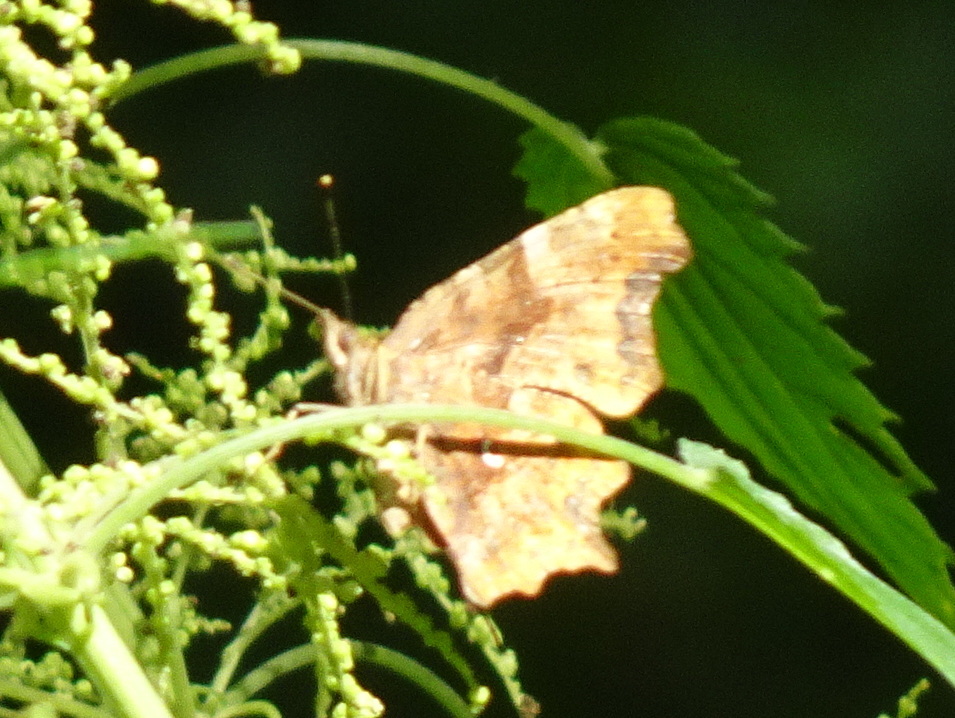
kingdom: Animalia
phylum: Arthropoda
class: Insecta
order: Lepidoptera
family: Nymphalidae
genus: Polygonia
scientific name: Polygonia c-album
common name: Comma
